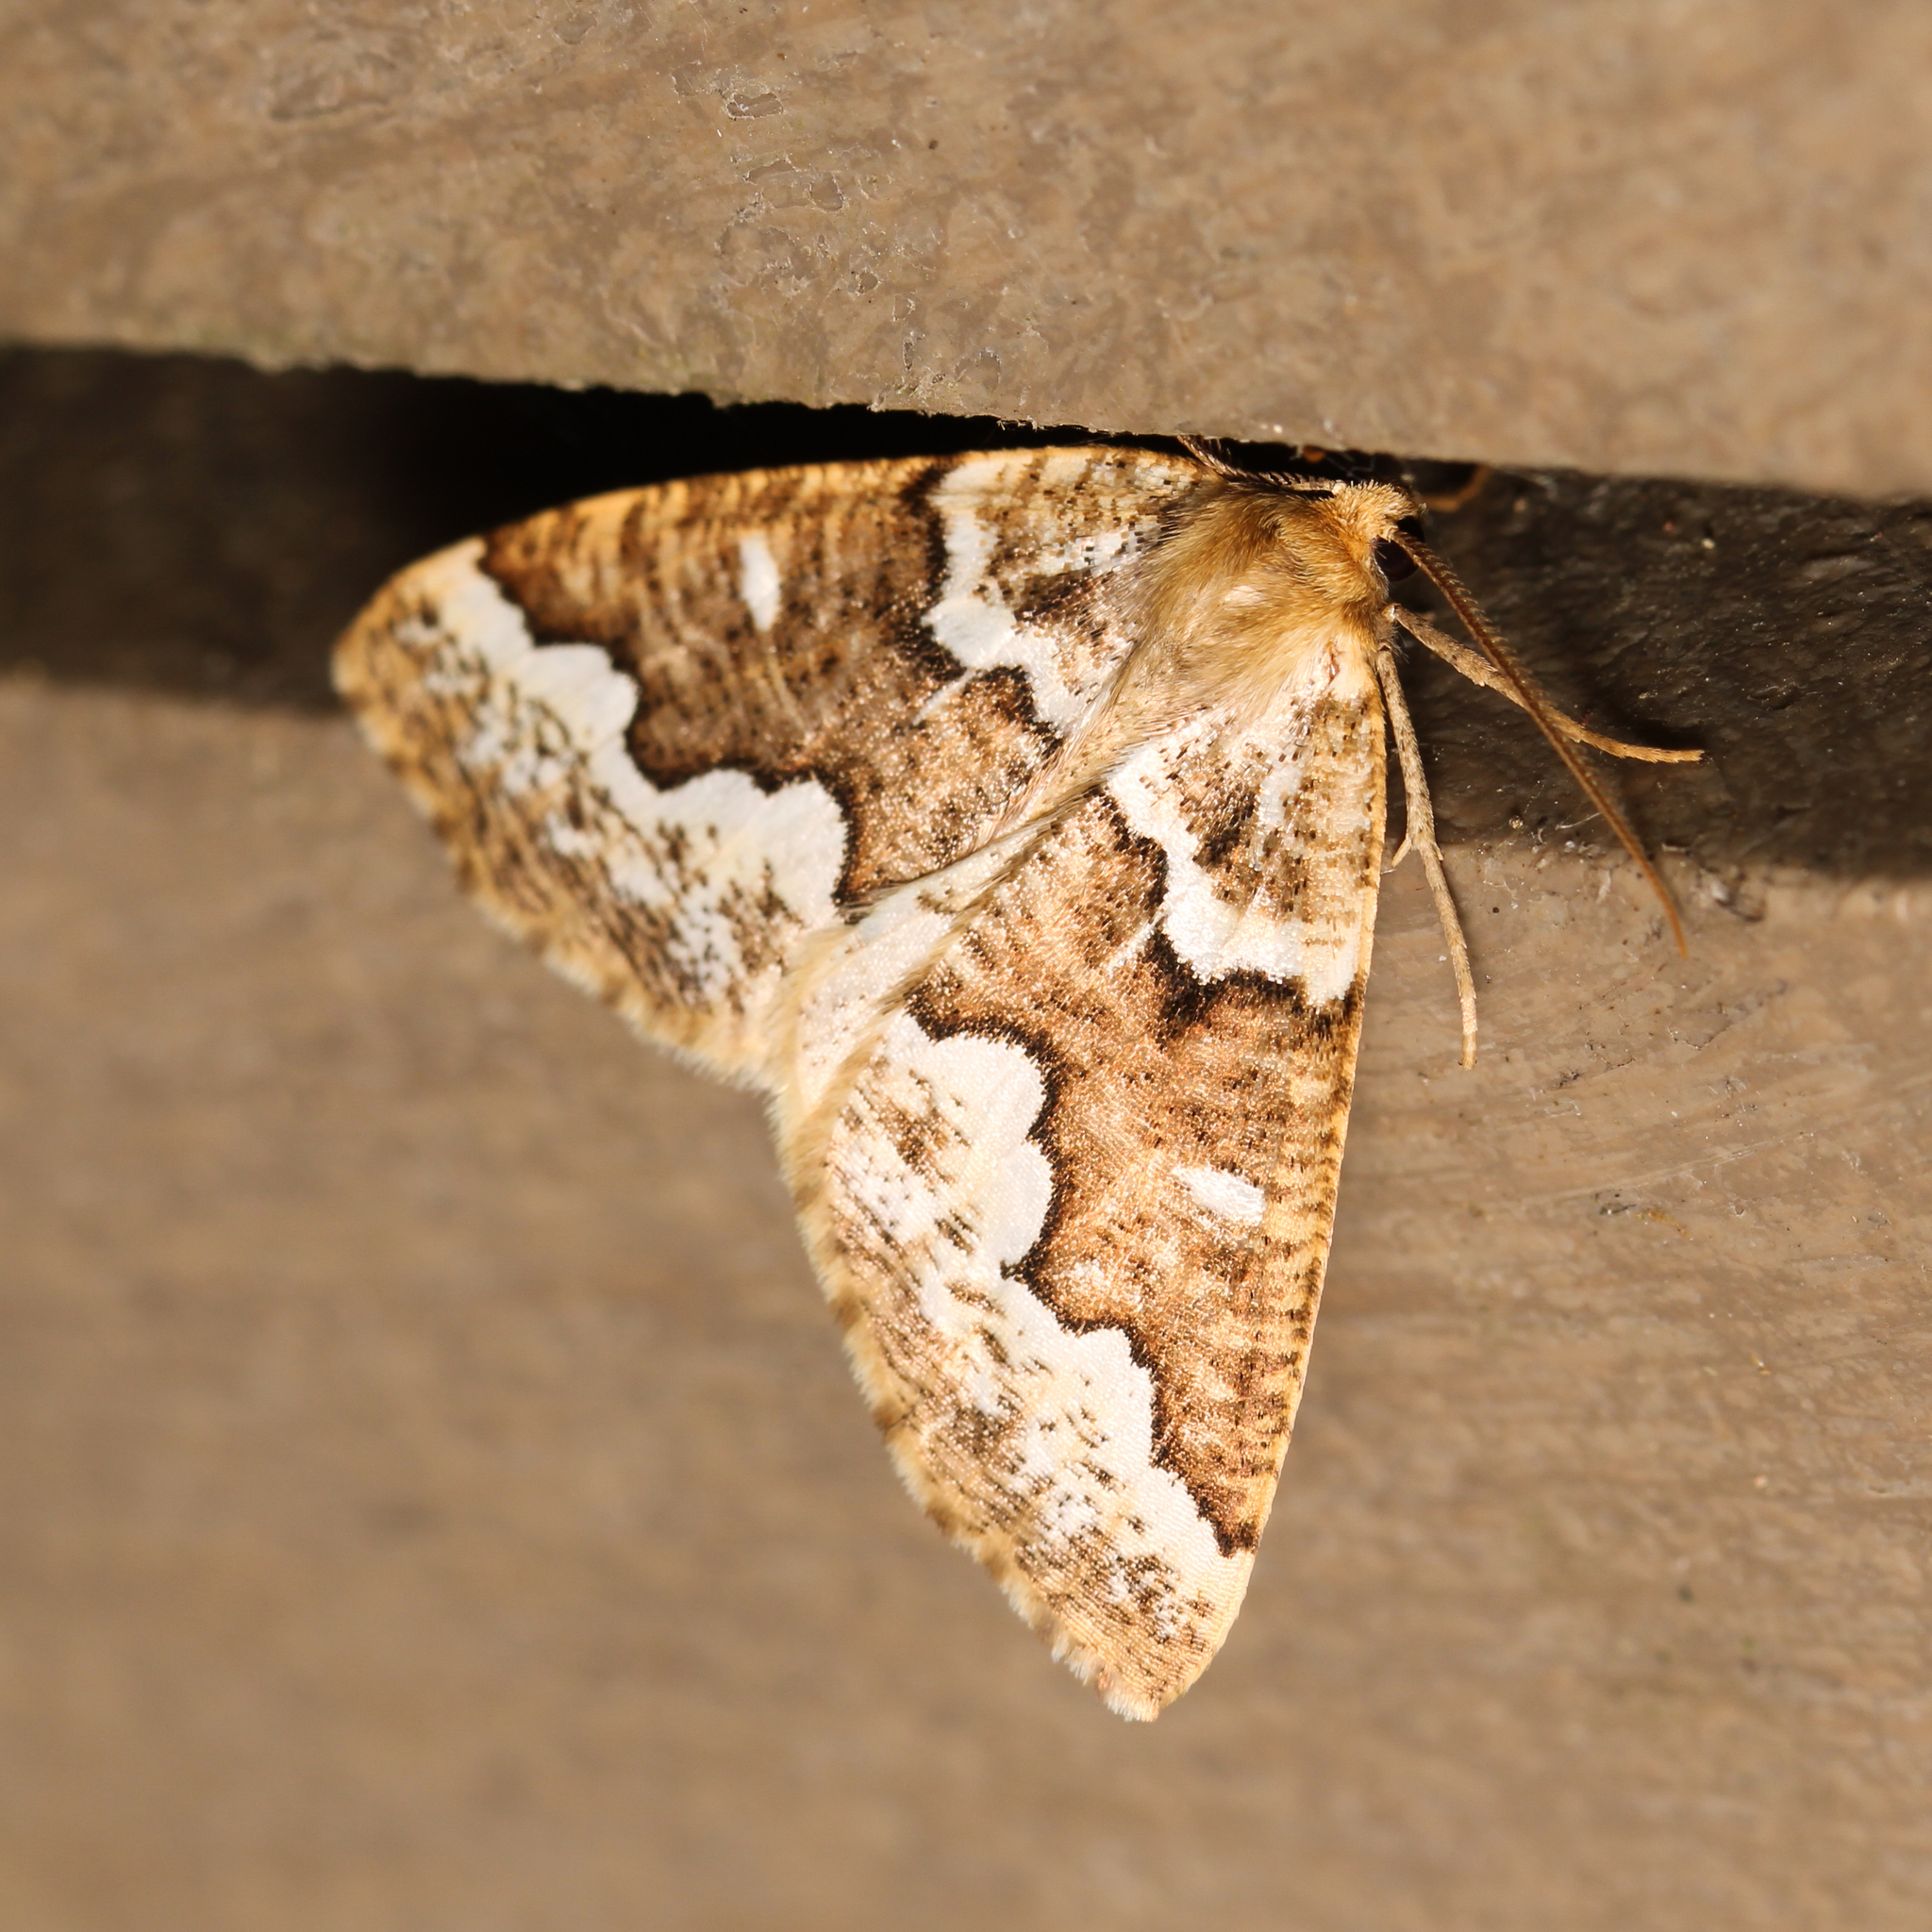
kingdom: Animalia
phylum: Arthropoda
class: Insecta
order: Lepidoptera
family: Geometridae
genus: Caripeta
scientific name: Caripeta divisata
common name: Gray spruce looper
